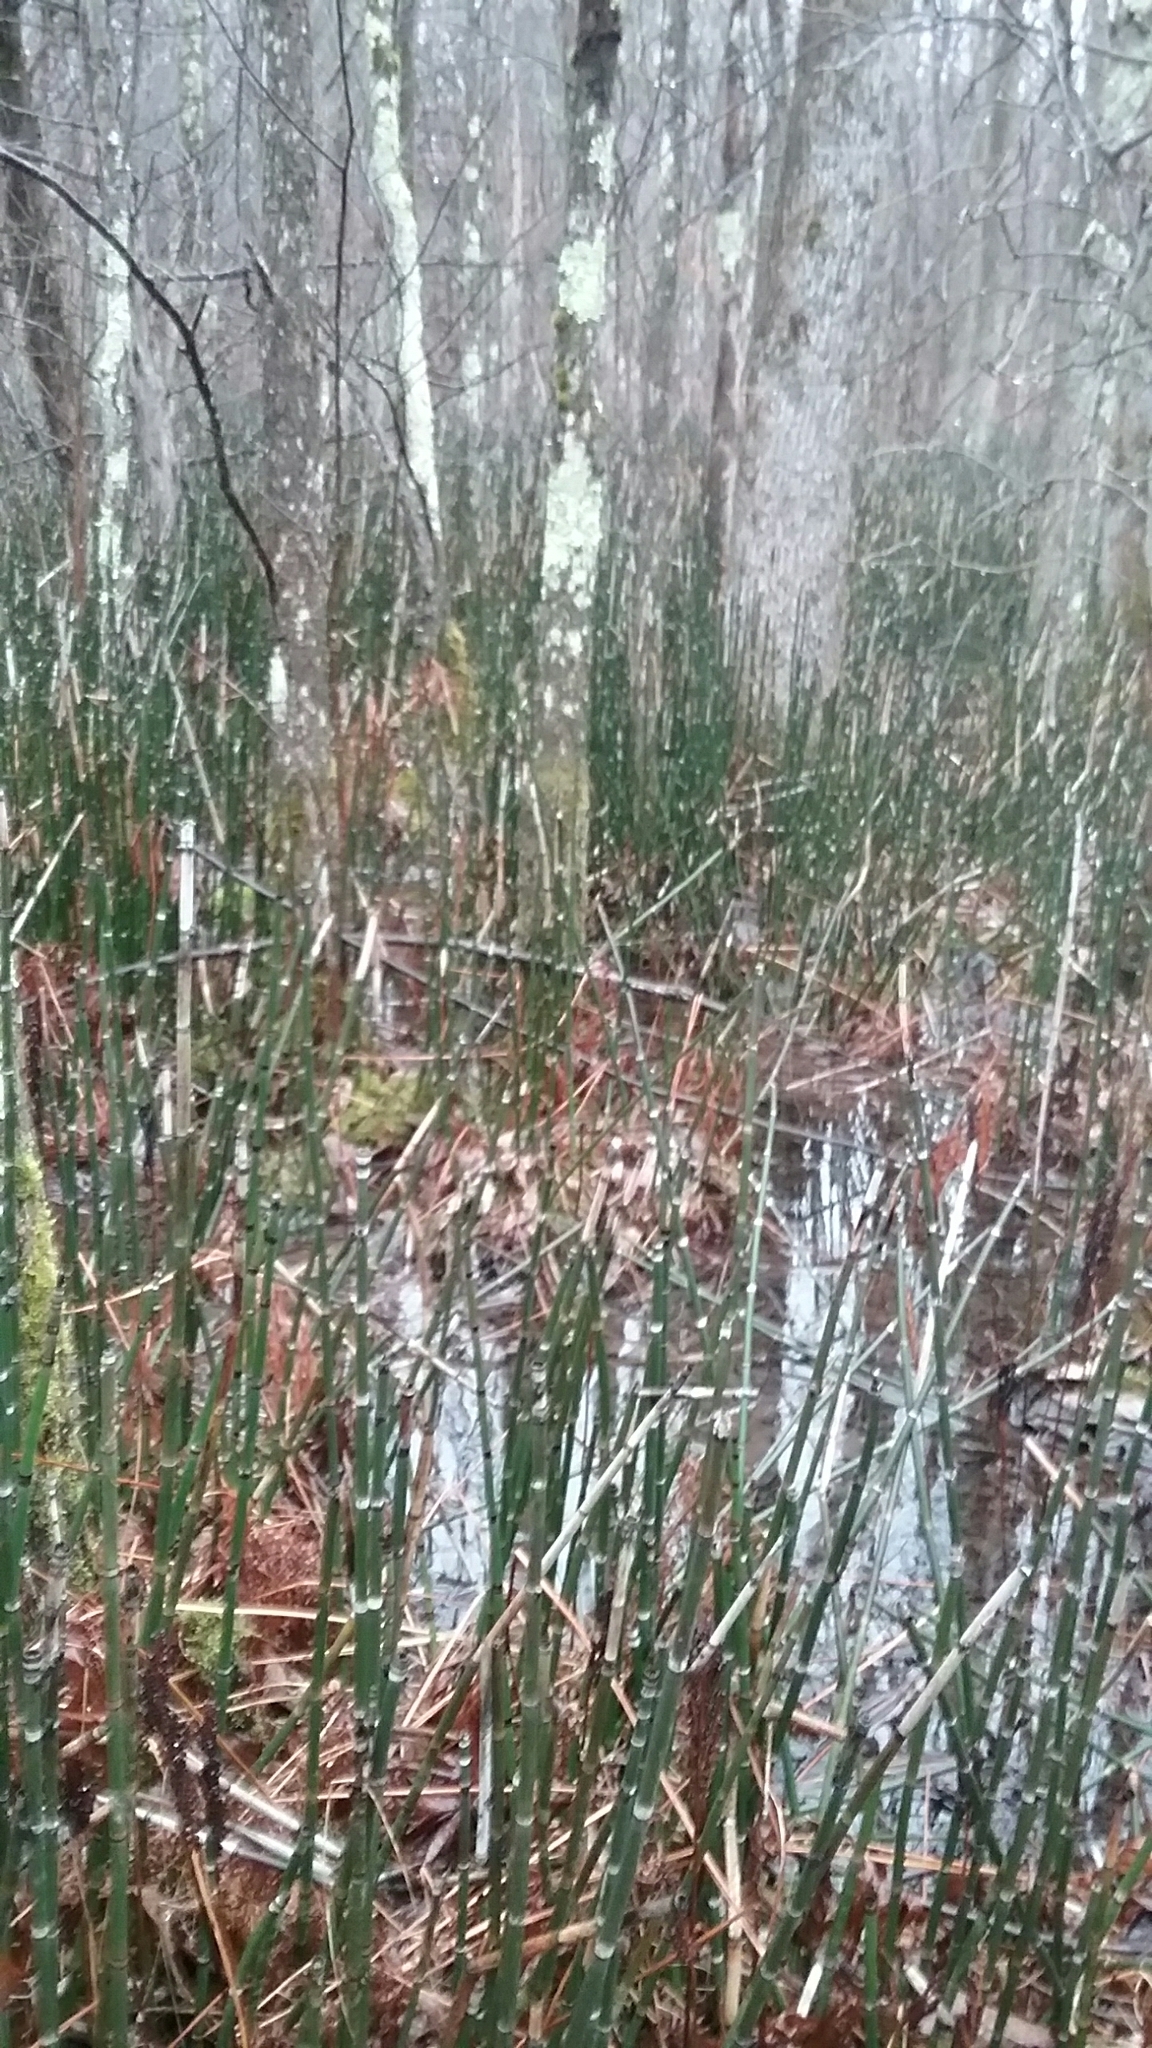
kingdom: Plantae
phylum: Tracheophyta
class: Polypodiopsida
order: Equisetales
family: Equisetaceae
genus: Equisetum
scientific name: Equisetum praealtum
